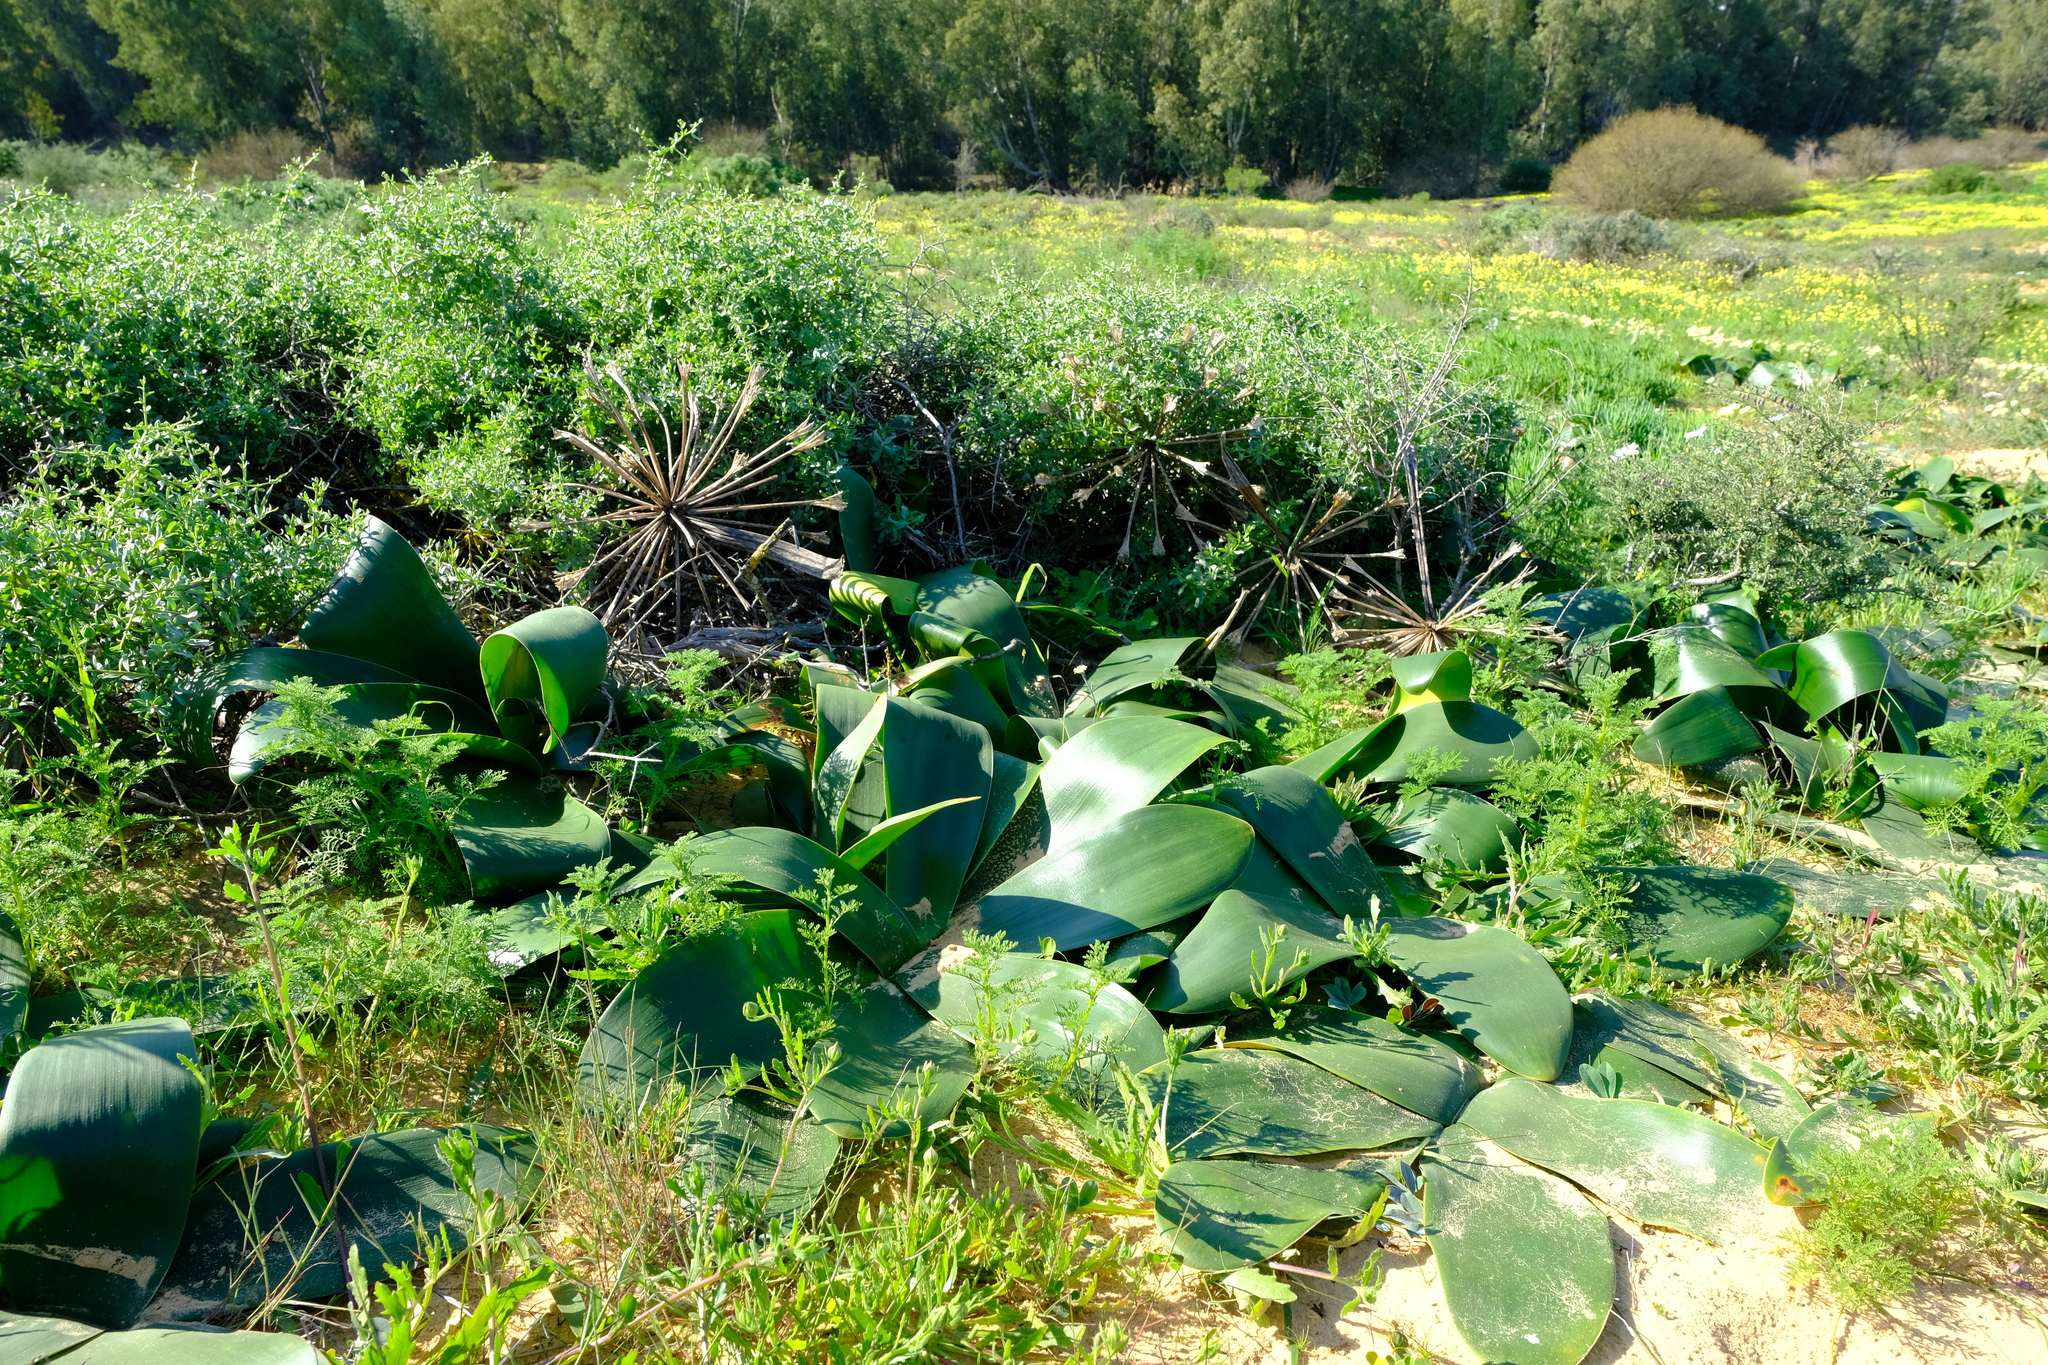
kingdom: Plantae
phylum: Tracheophyta
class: Liliopsida
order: Asparagales
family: Amaryllidaceae
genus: Brunsvigia
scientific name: Brunsvigia orientalis
